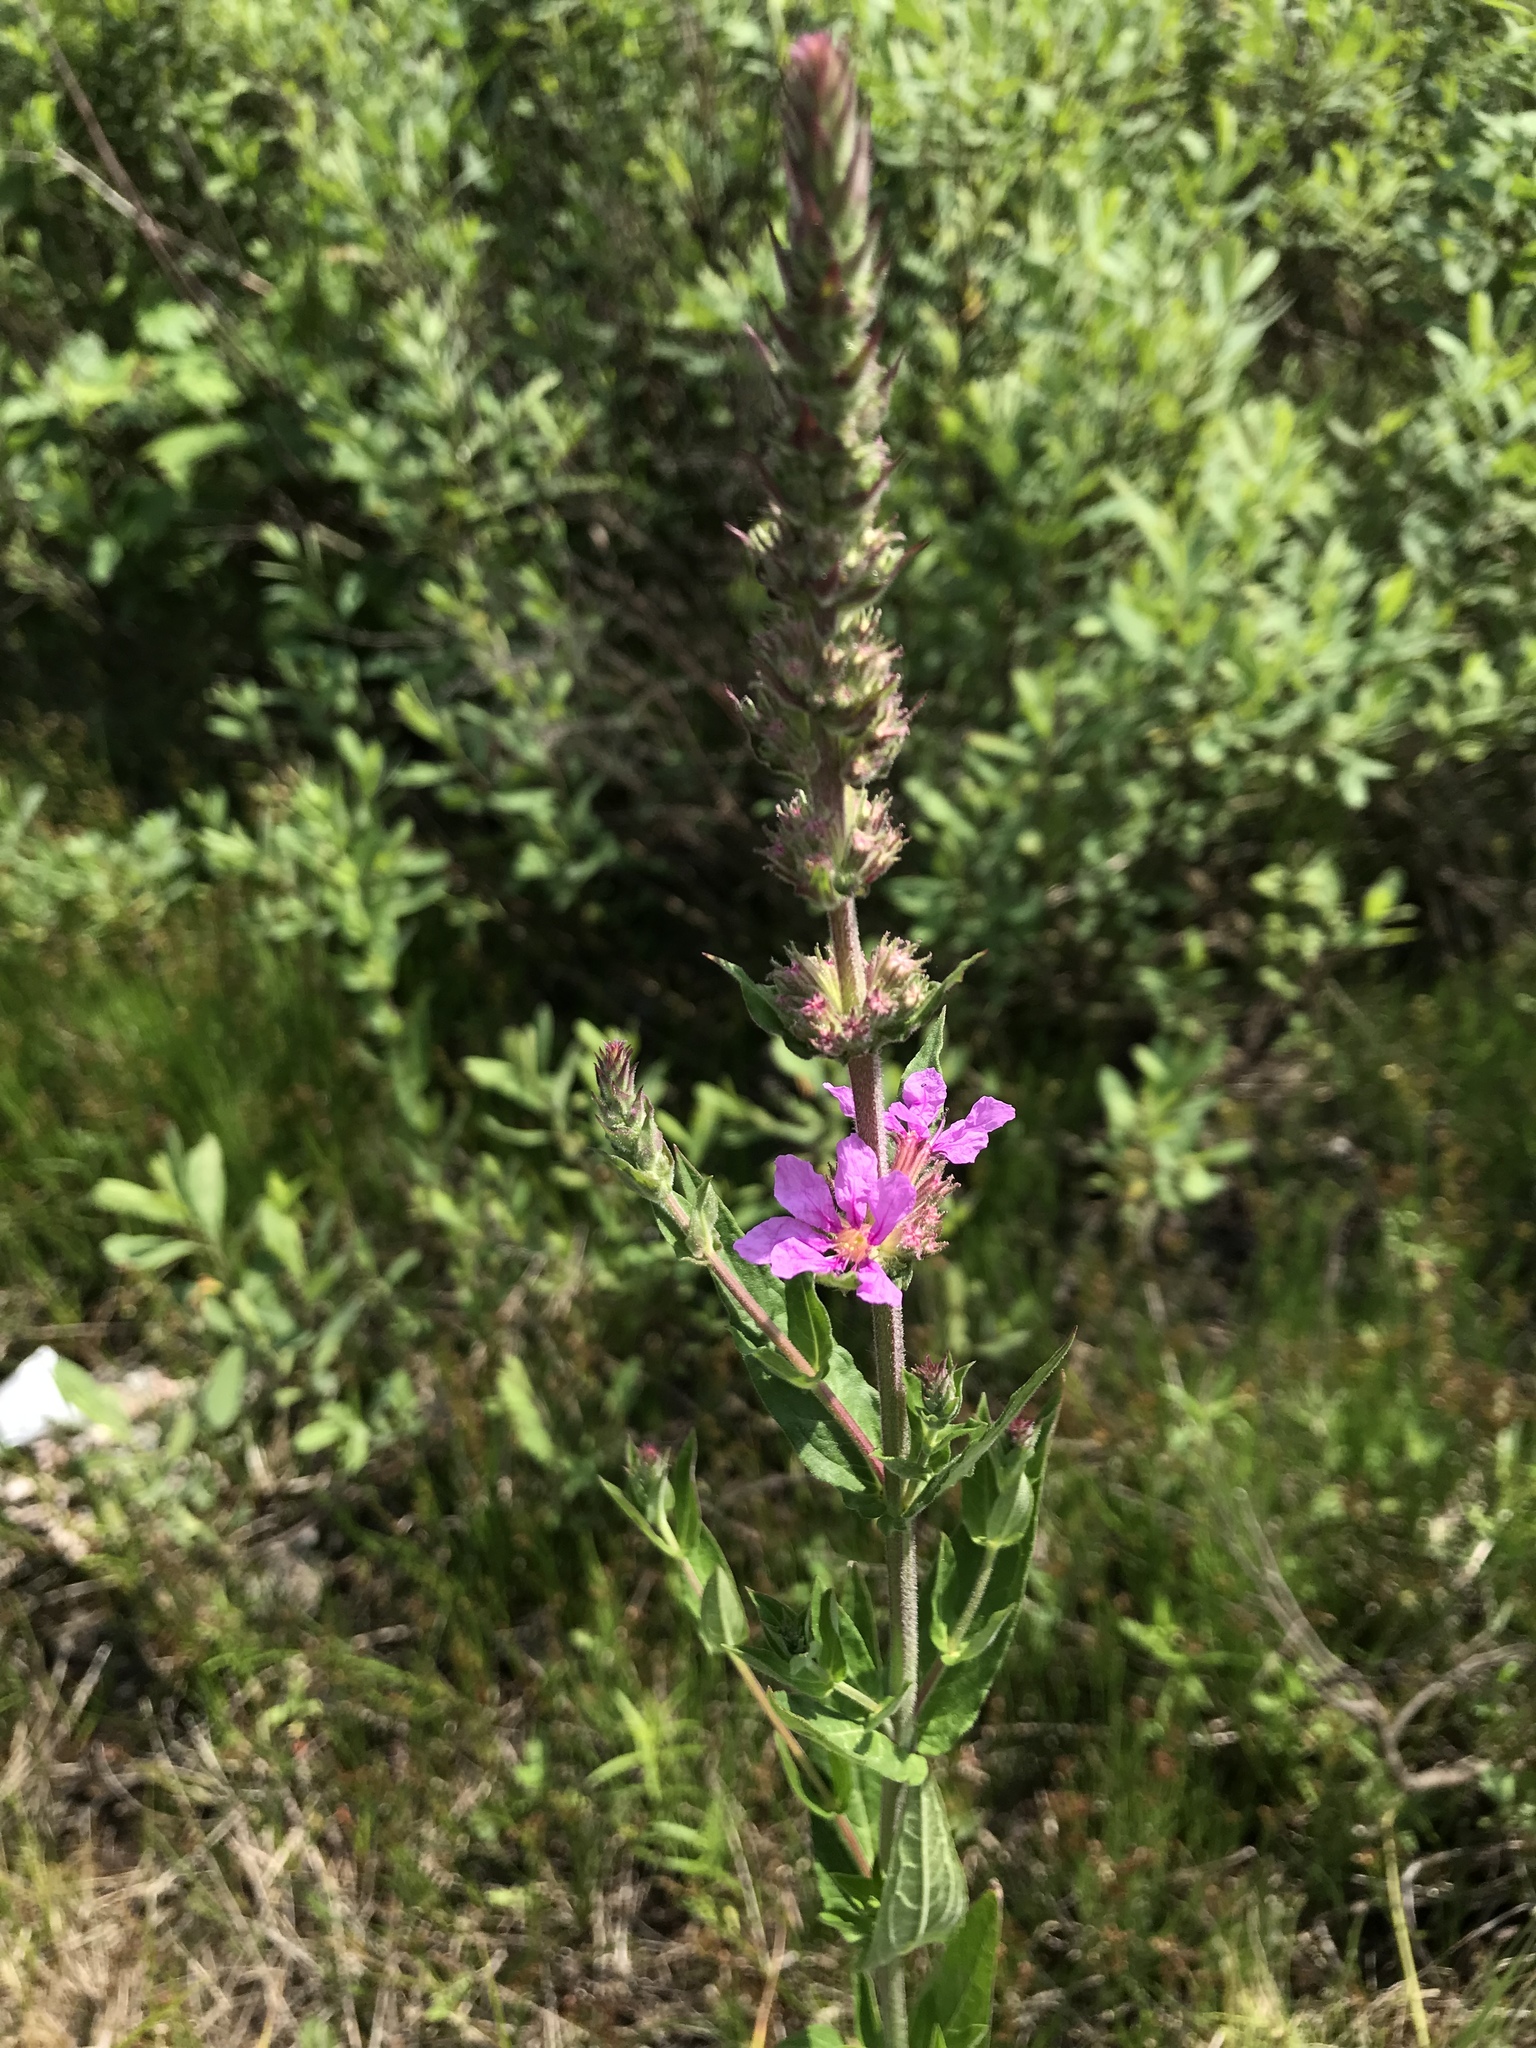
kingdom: Plantae
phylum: Tracheophyta
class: Magnoliopsida
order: Myrtales
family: Lythraceae
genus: Lythrum
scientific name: Lythrum salicaria
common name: Purple loosestrife
